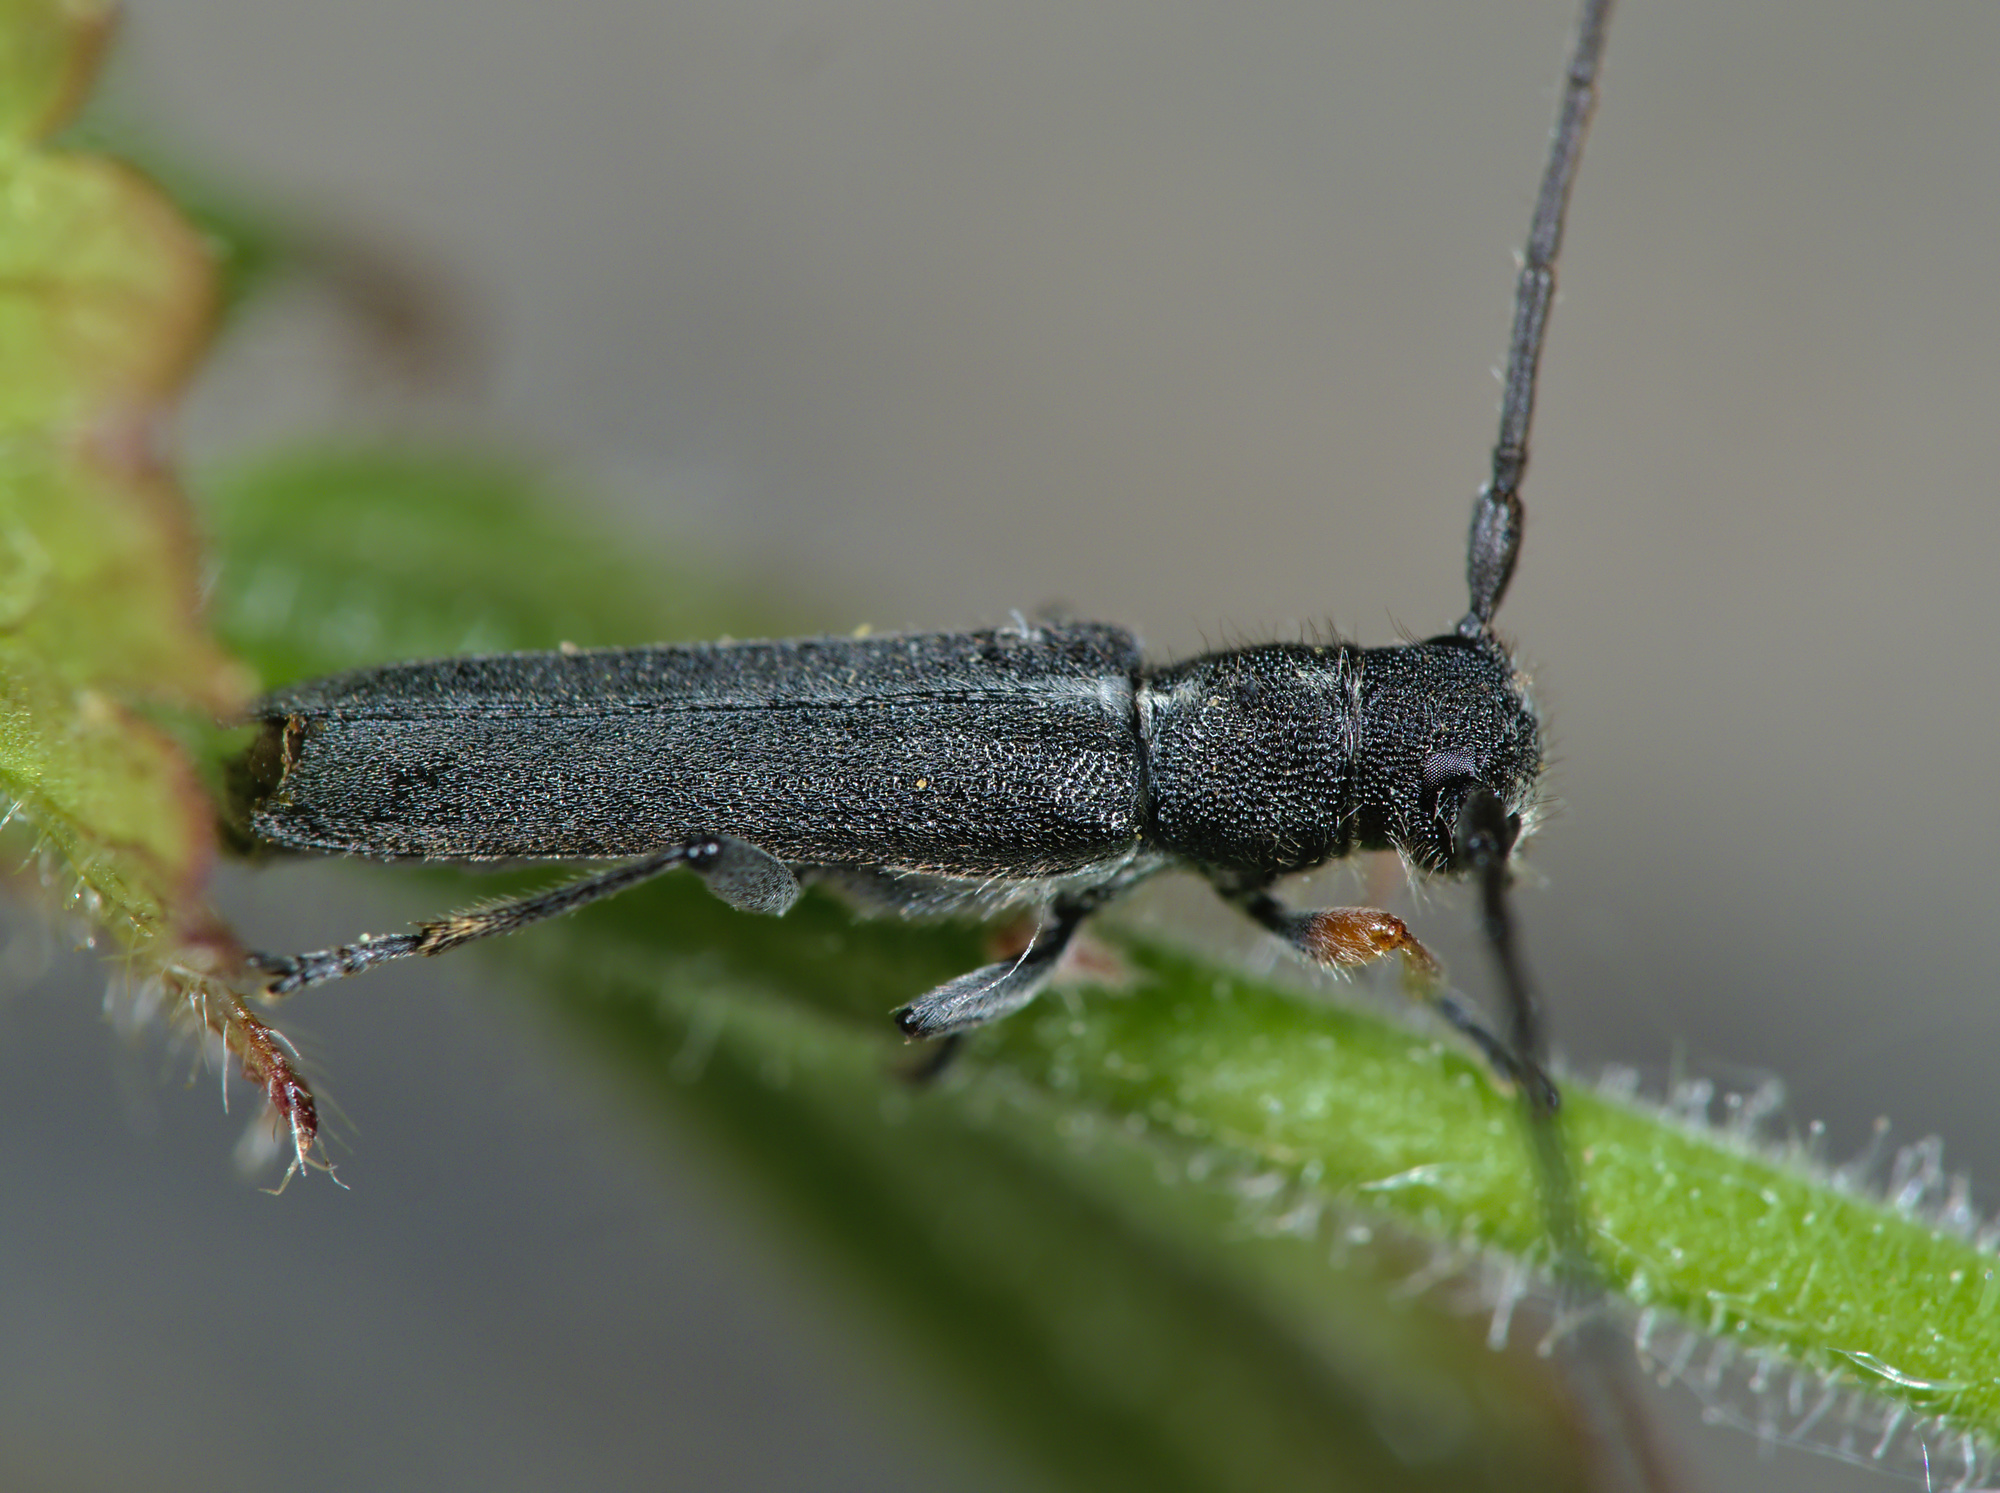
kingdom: Animalia
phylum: Arthropoda
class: Insecta
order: Coleoptera
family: Cerambycidae
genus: Phytoecia
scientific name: Phytoecia cylindrica
